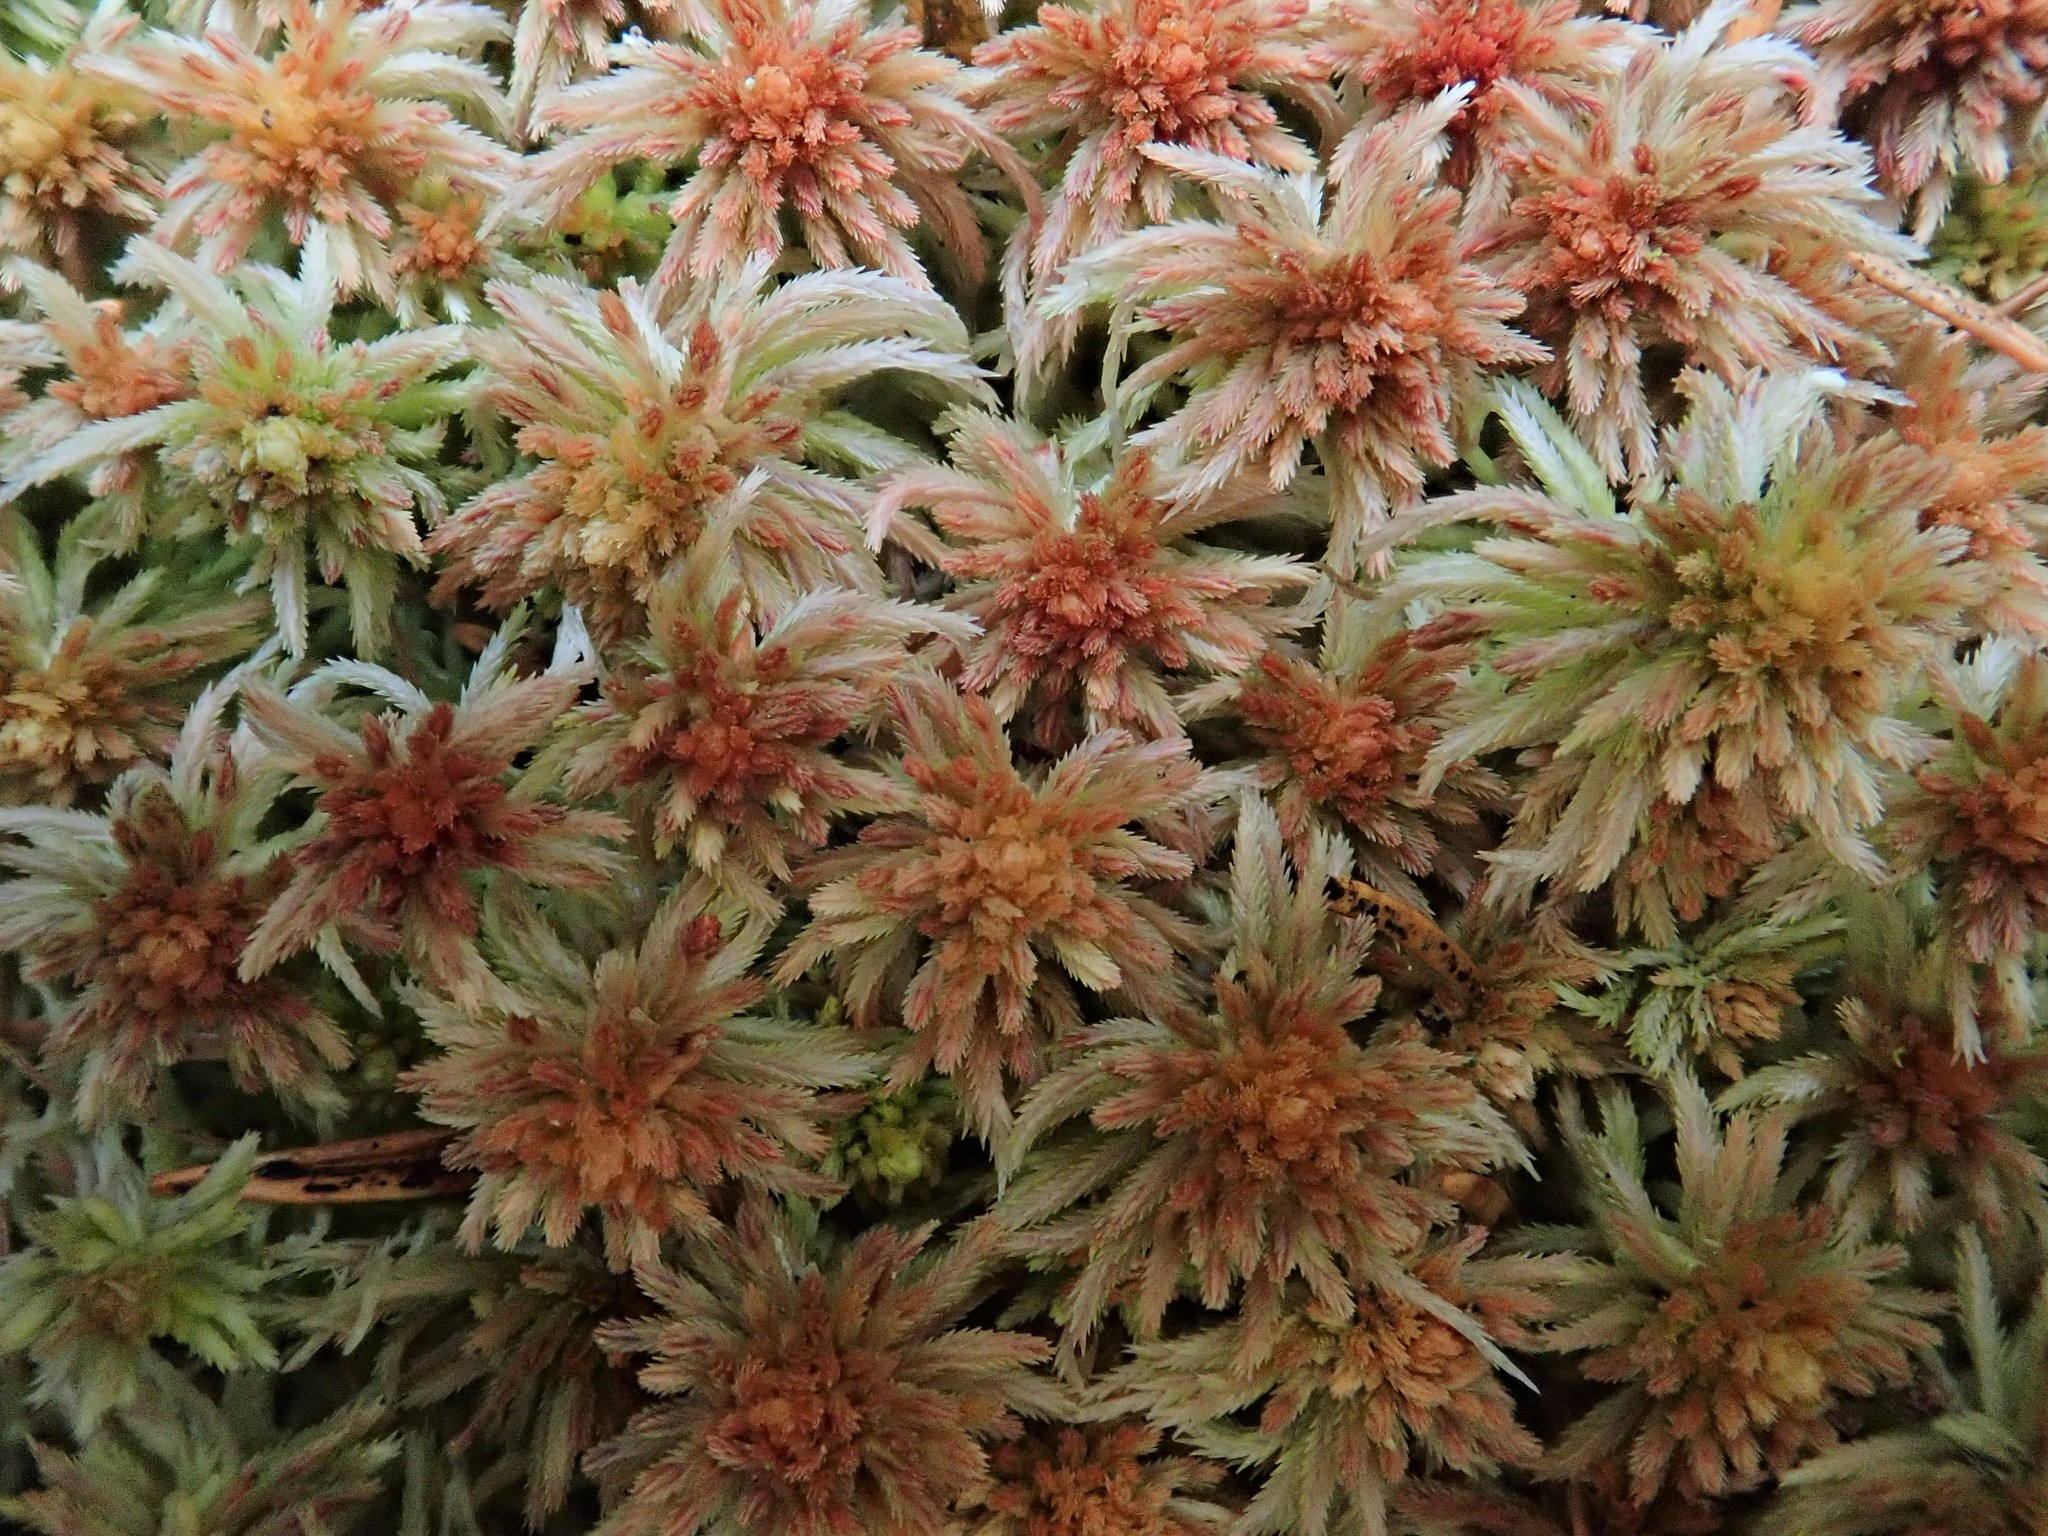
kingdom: Plantae
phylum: Bryophyta
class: Sphagnopsida
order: Sphagnales
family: Sphagnaceae
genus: Sphagnum
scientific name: Sphagnum quinquefarium
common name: Five-ranked peat moss
